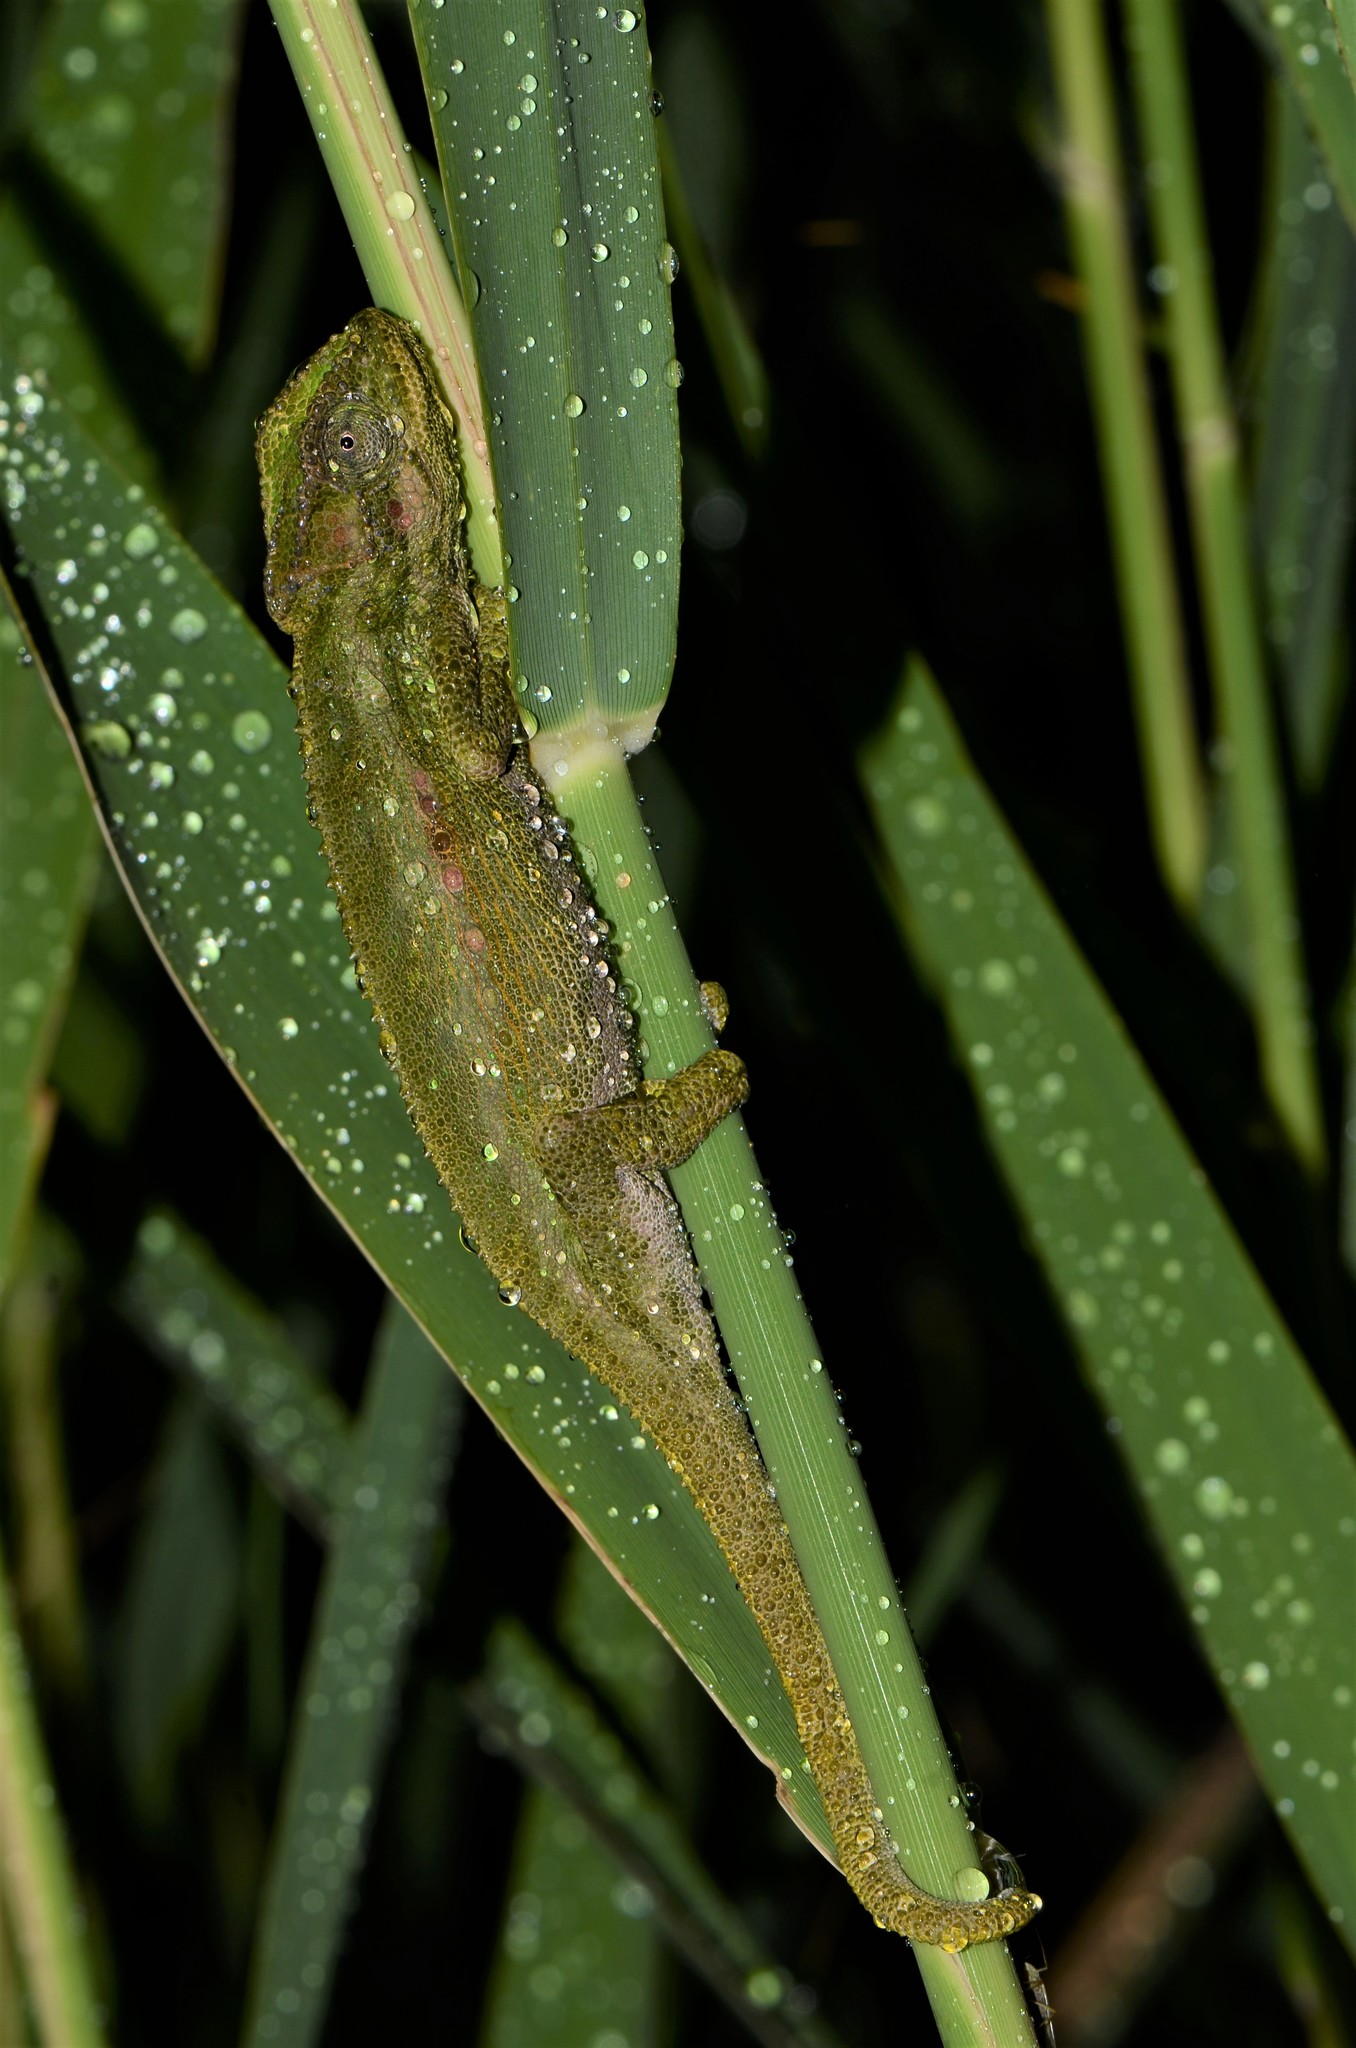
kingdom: Animalia
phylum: Chordata
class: Squamata
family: Chamaeleonidae
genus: Bradypodion
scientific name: Bradypodion pumilum
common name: Cape dwarf chameleon
